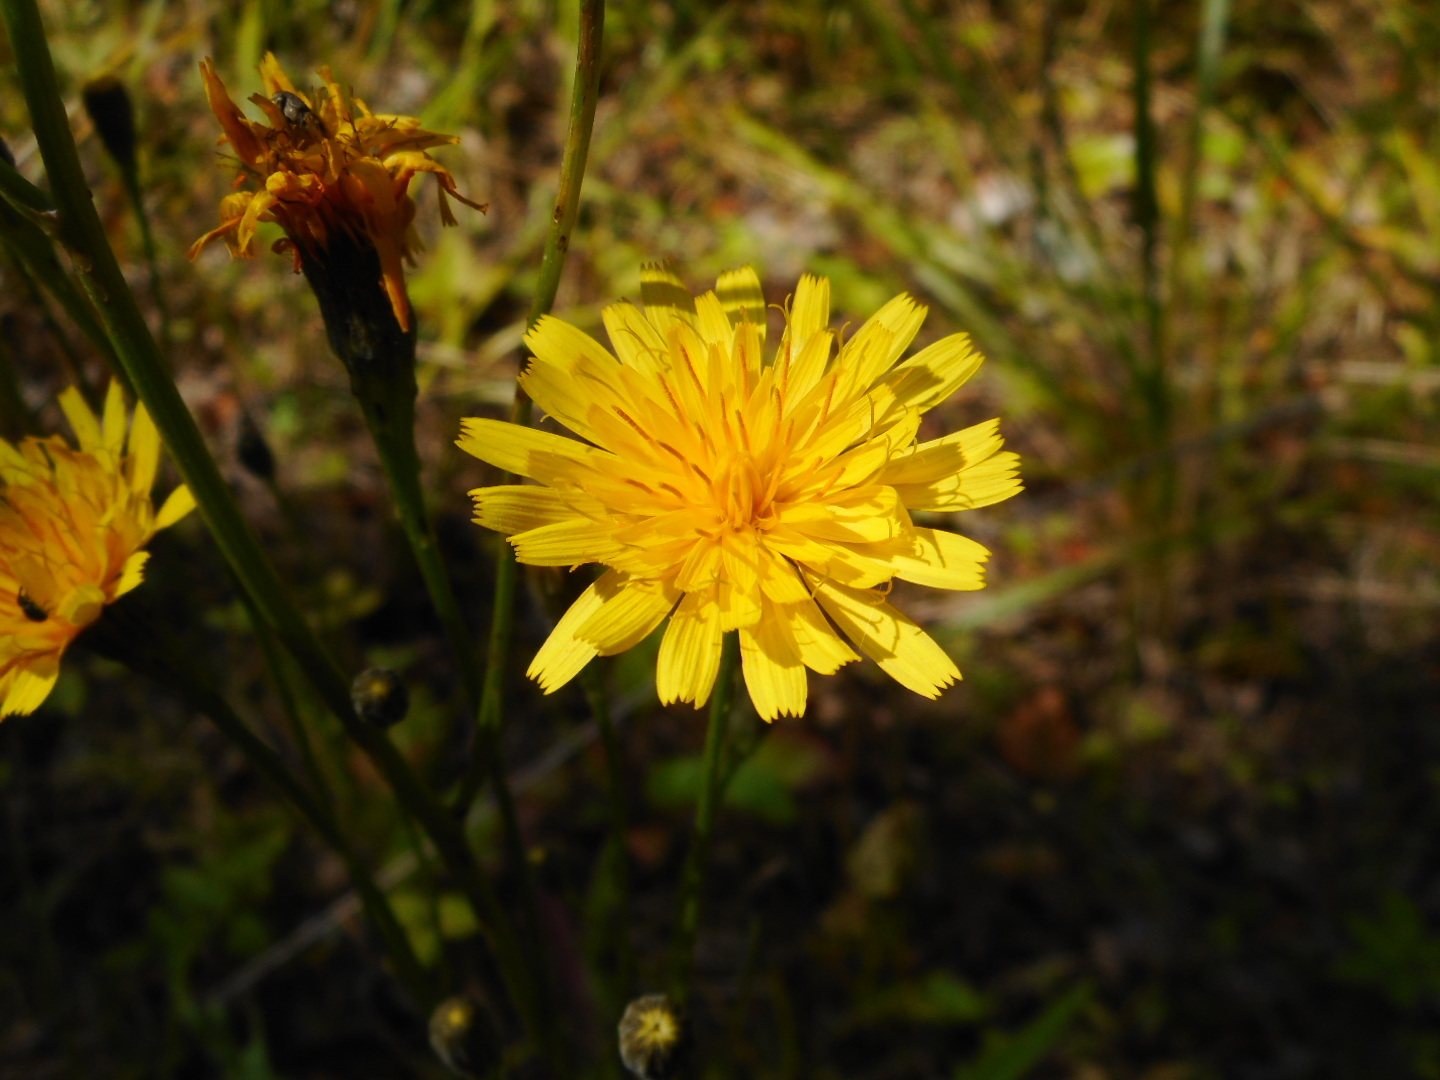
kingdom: Plantae
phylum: Tracheophyta
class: Magnoliopsida
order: Asterales
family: Asteraceae
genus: Scorzoneroides
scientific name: Scorzoneroides autumnalis
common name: Autumn hawkbit
